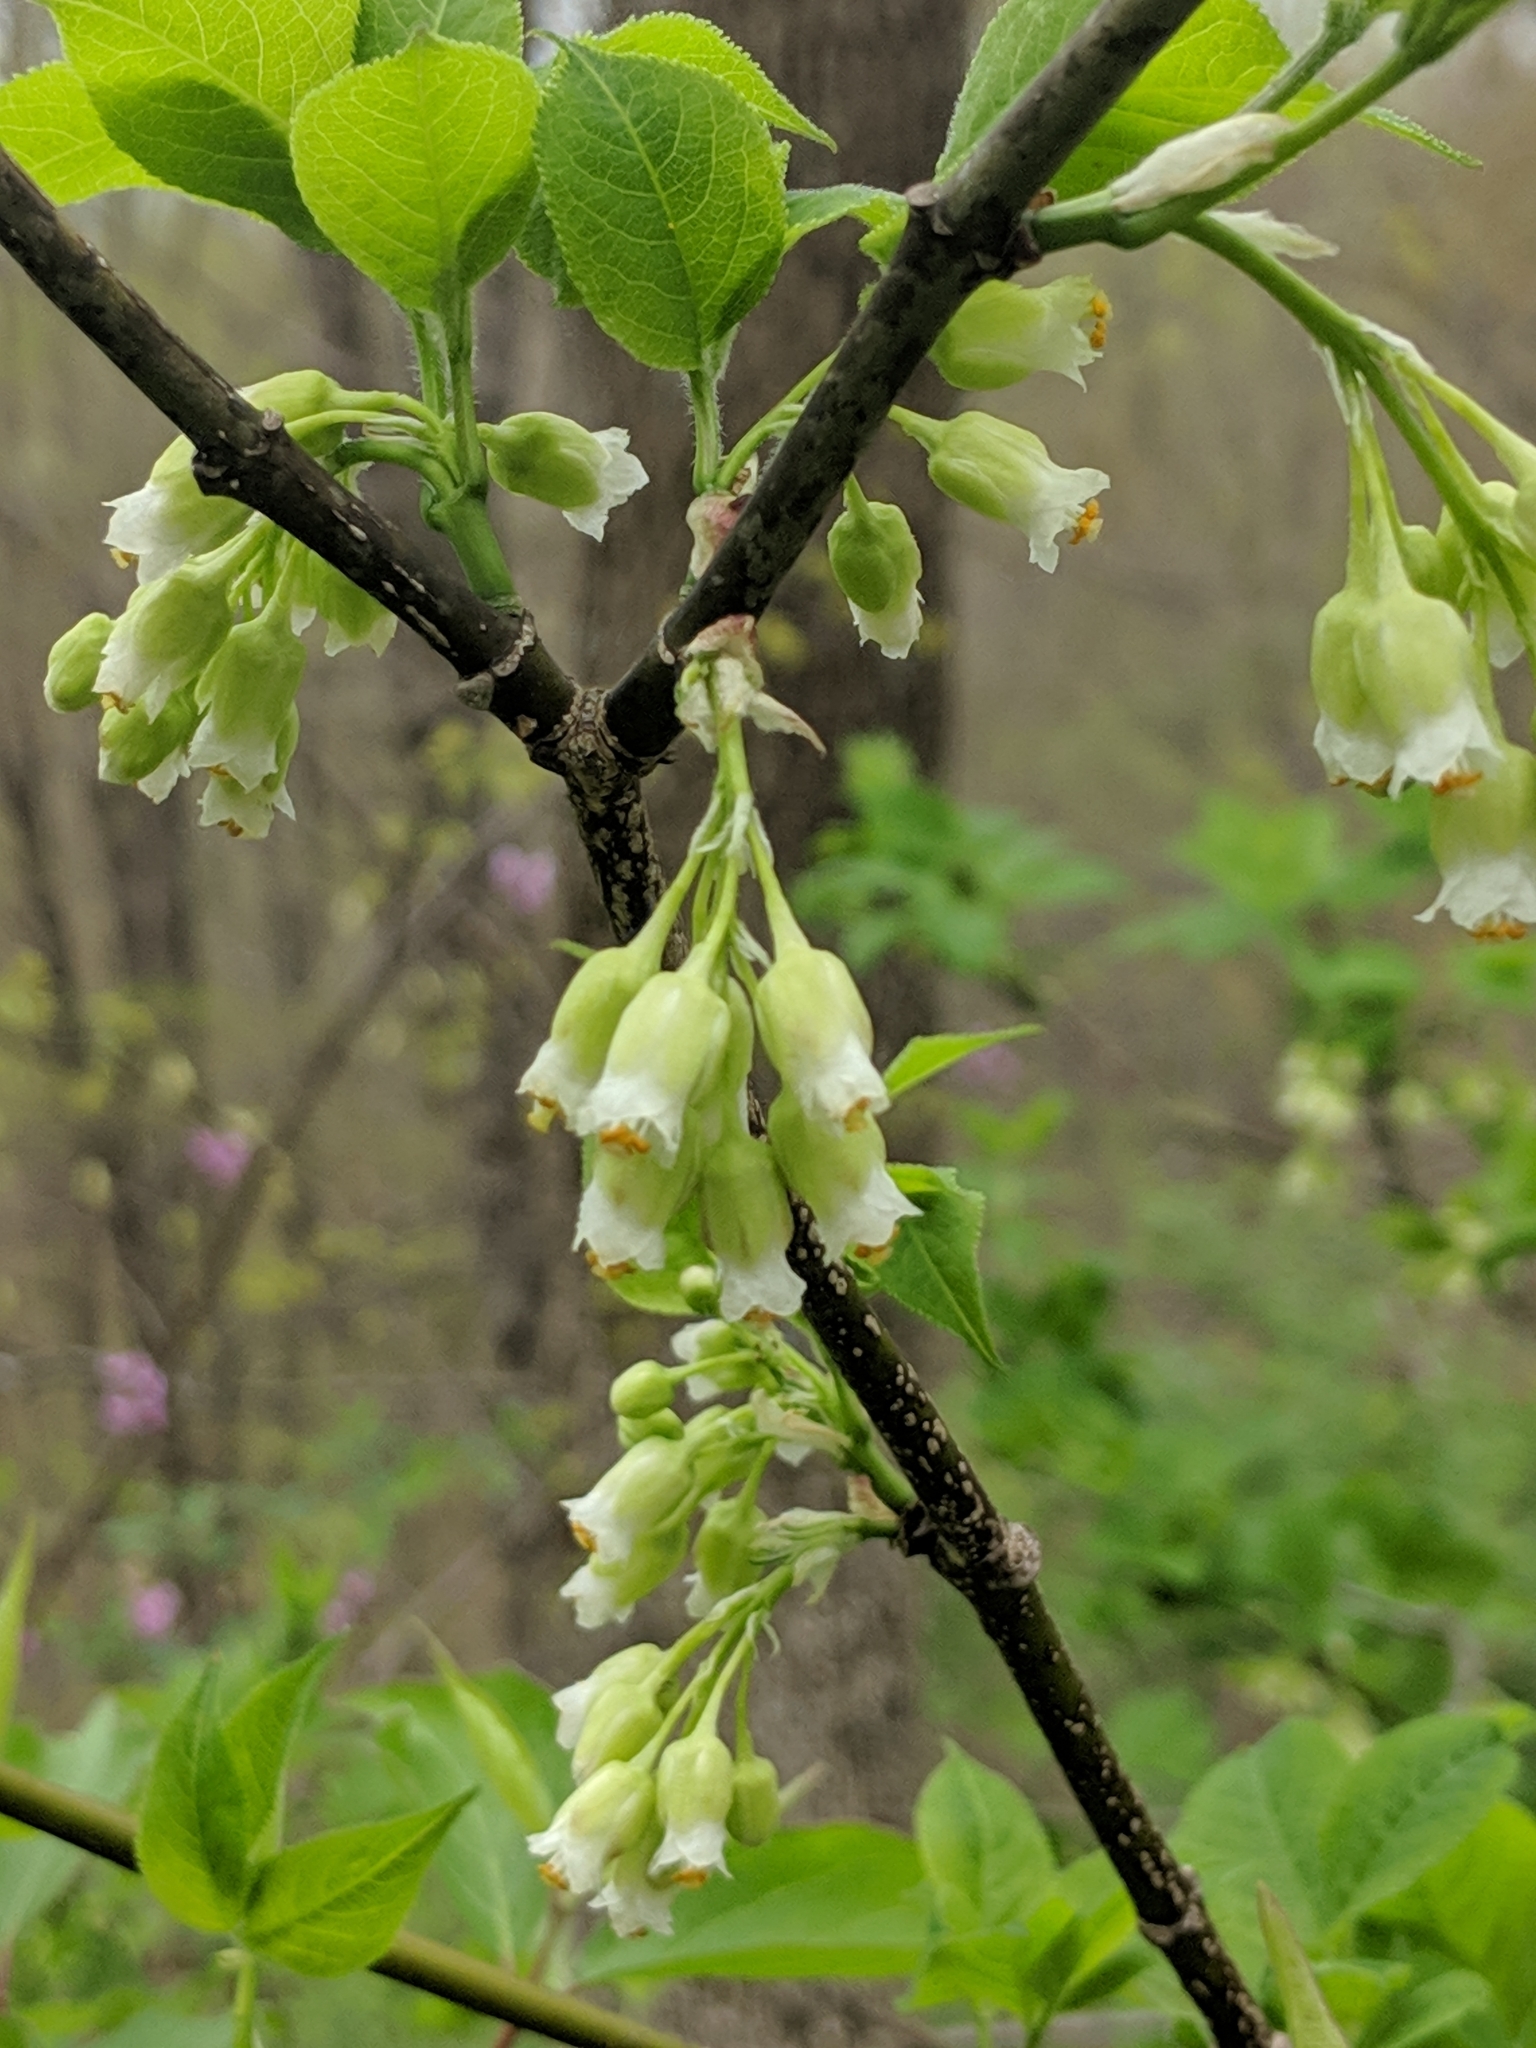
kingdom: Plantae
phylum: Tracheophyta
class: Magnoliopsida
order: Crossosomatales
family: Staphyleaceae
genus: Staphylea
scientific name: Staphylea trifolia
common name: American bladdernut
